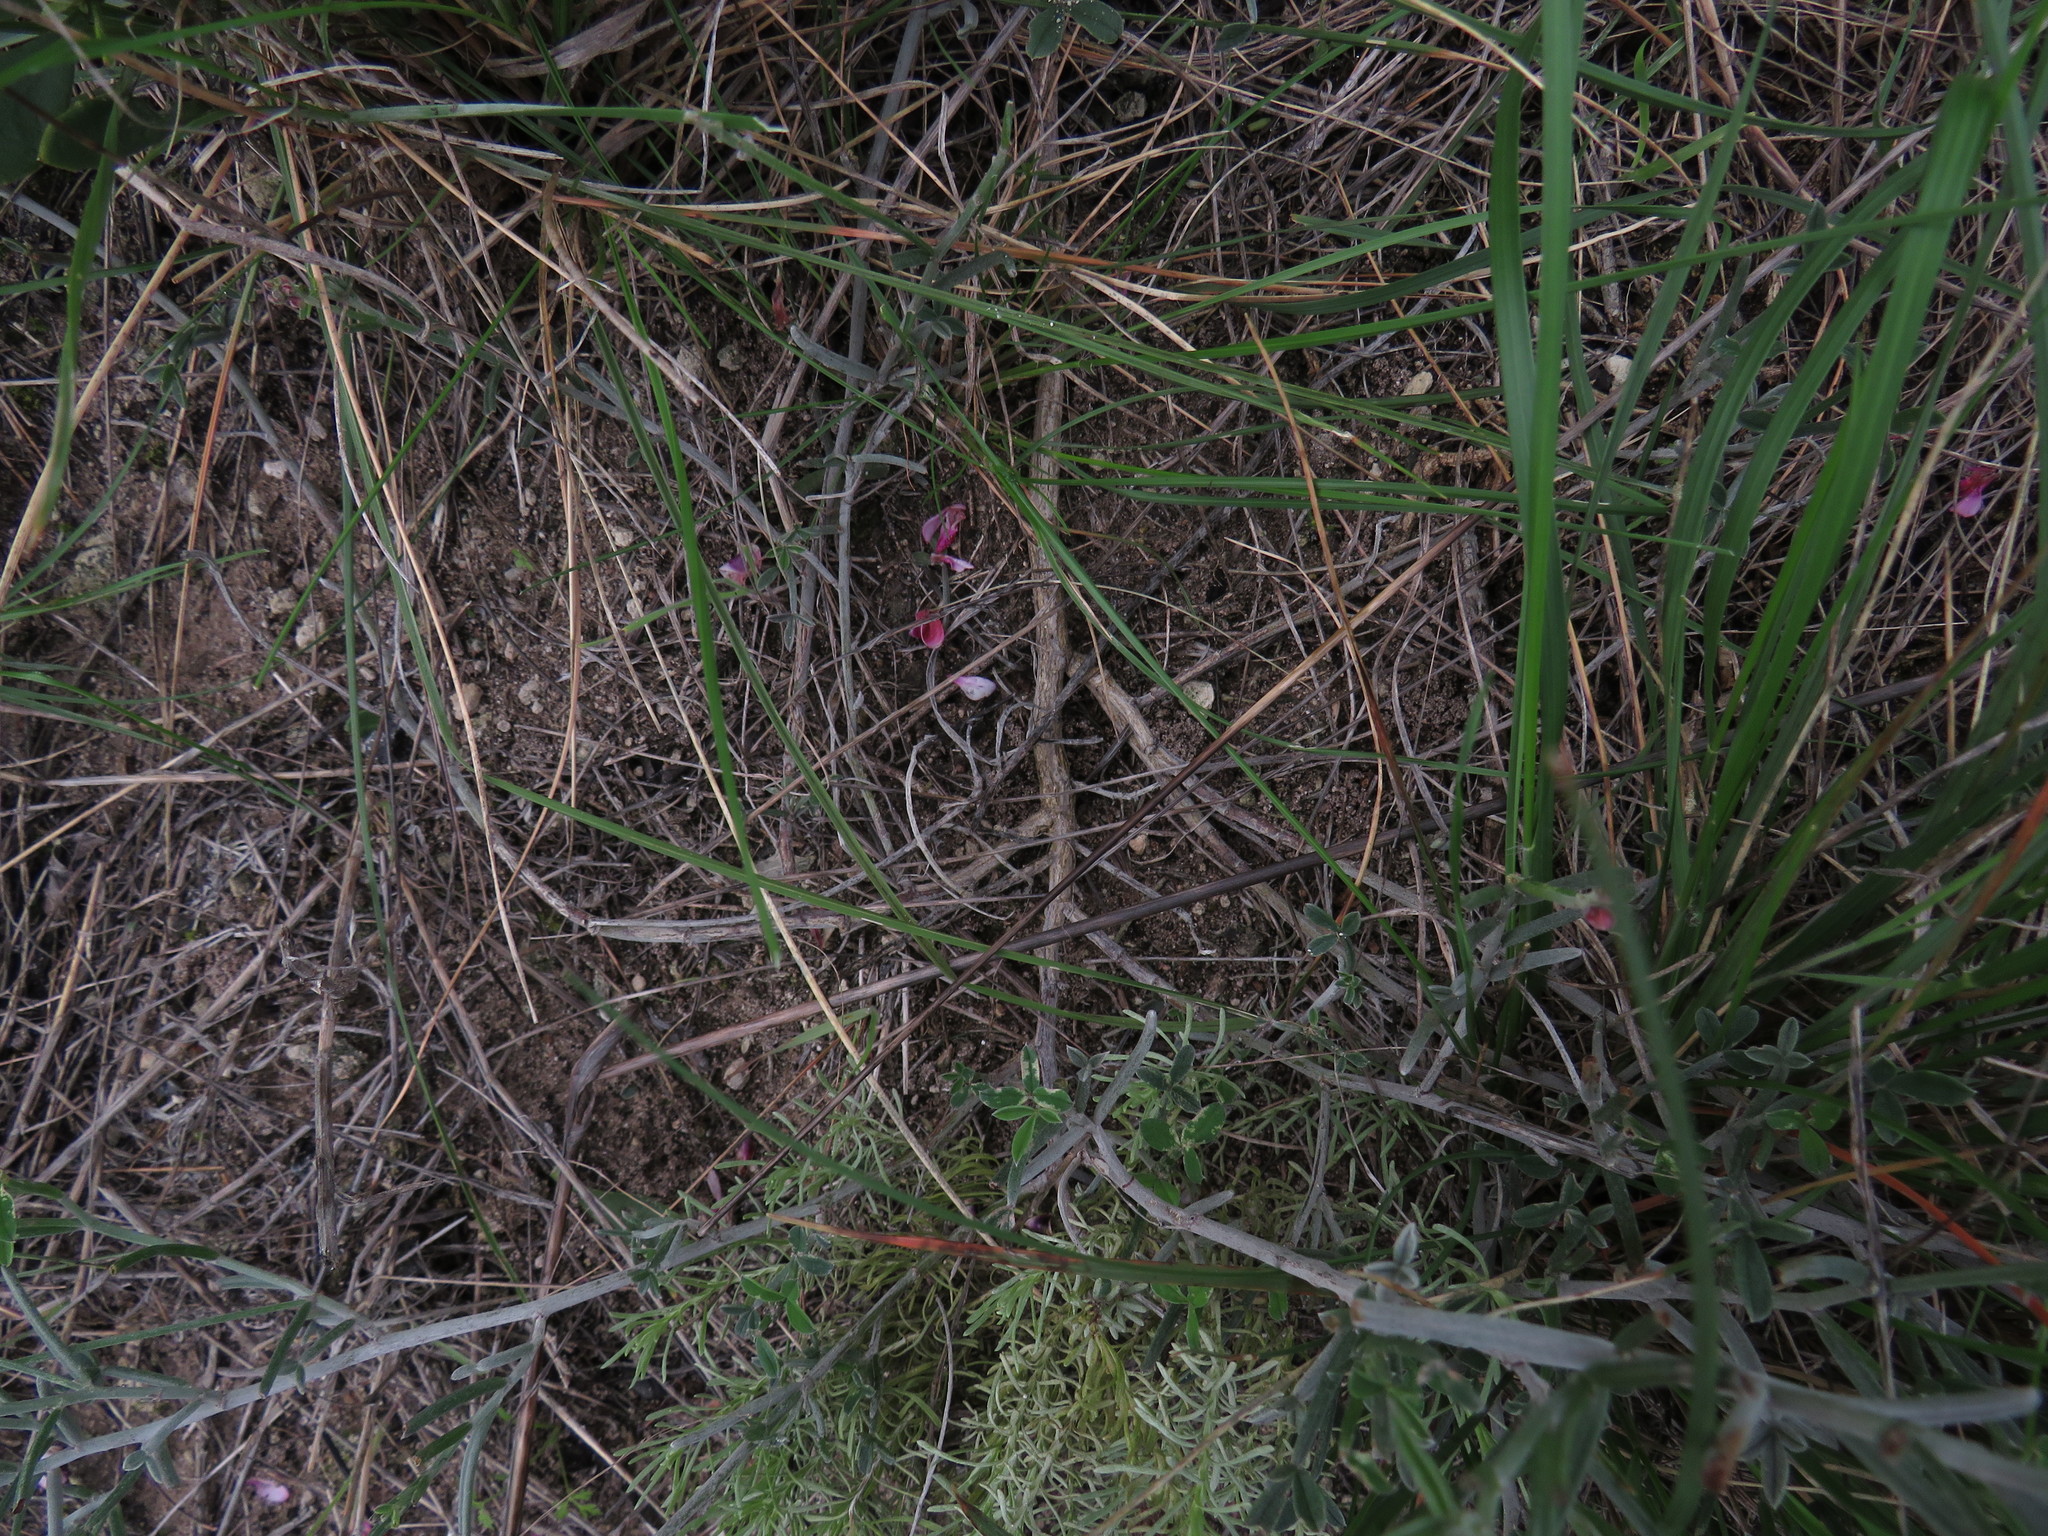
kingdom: Plantae
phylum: Tracheophyta
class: Magnoliopsida
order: Fabales
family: Fabaceae
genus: Indigofera
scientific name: Indigofera
